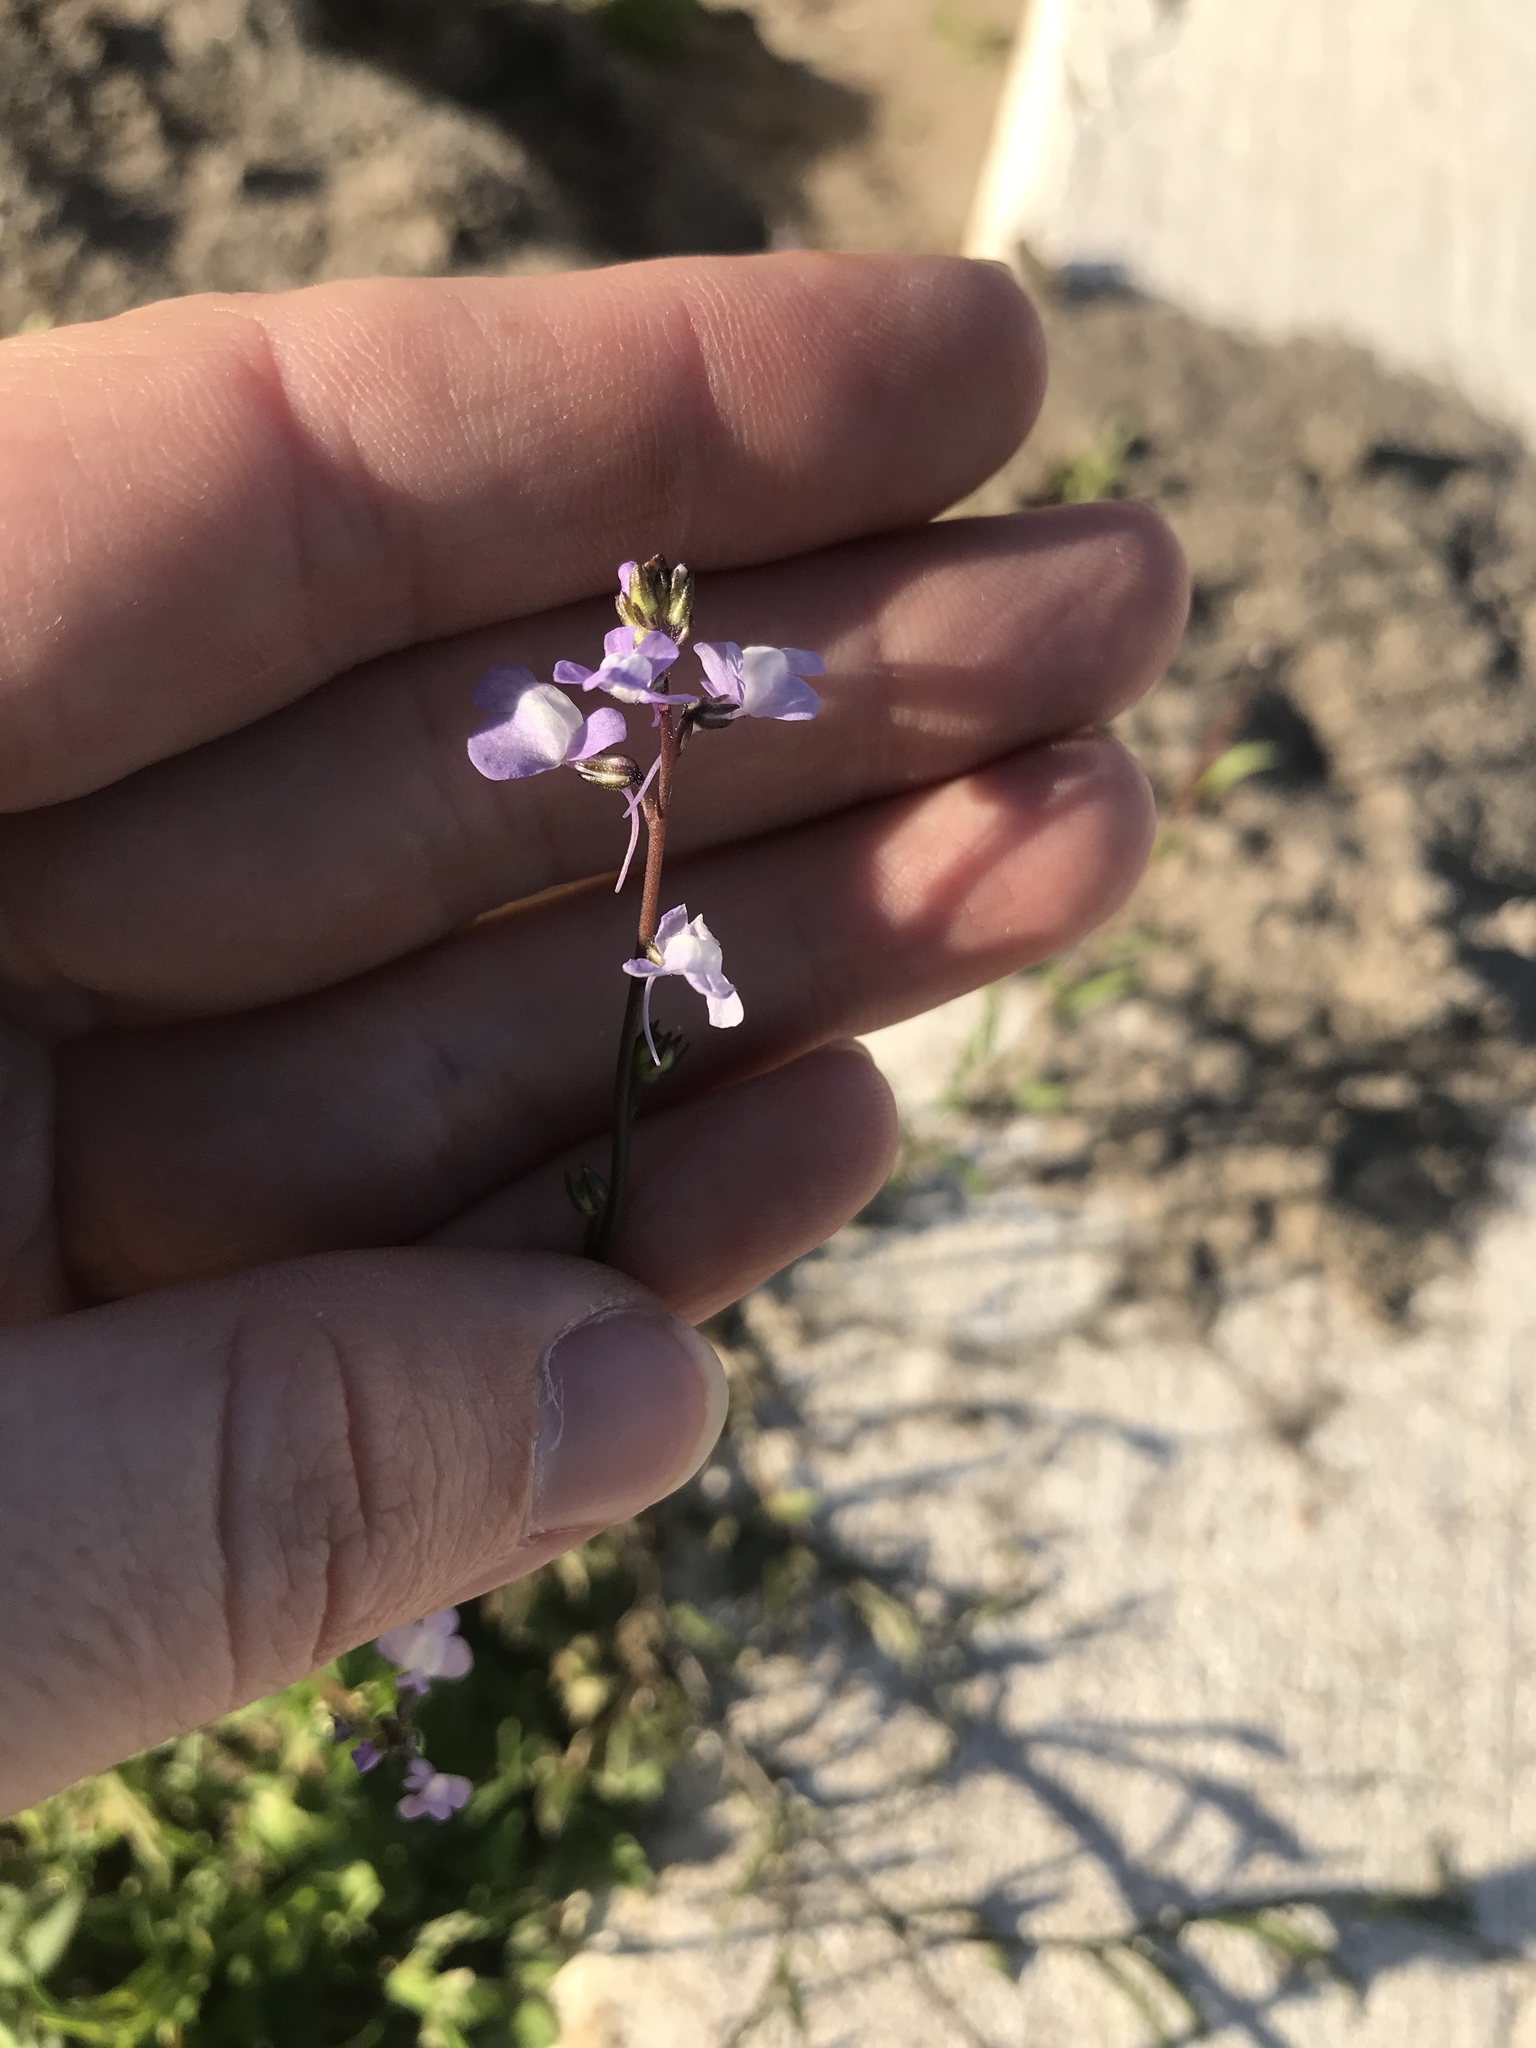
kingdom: Plantae
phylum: Tracheophyta
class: Magnoliopsida
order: Lamiales
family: Plantaginaceae
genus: Nuttallanthus
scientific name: Nuttallanthus canadensis
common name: Blue toadflax
